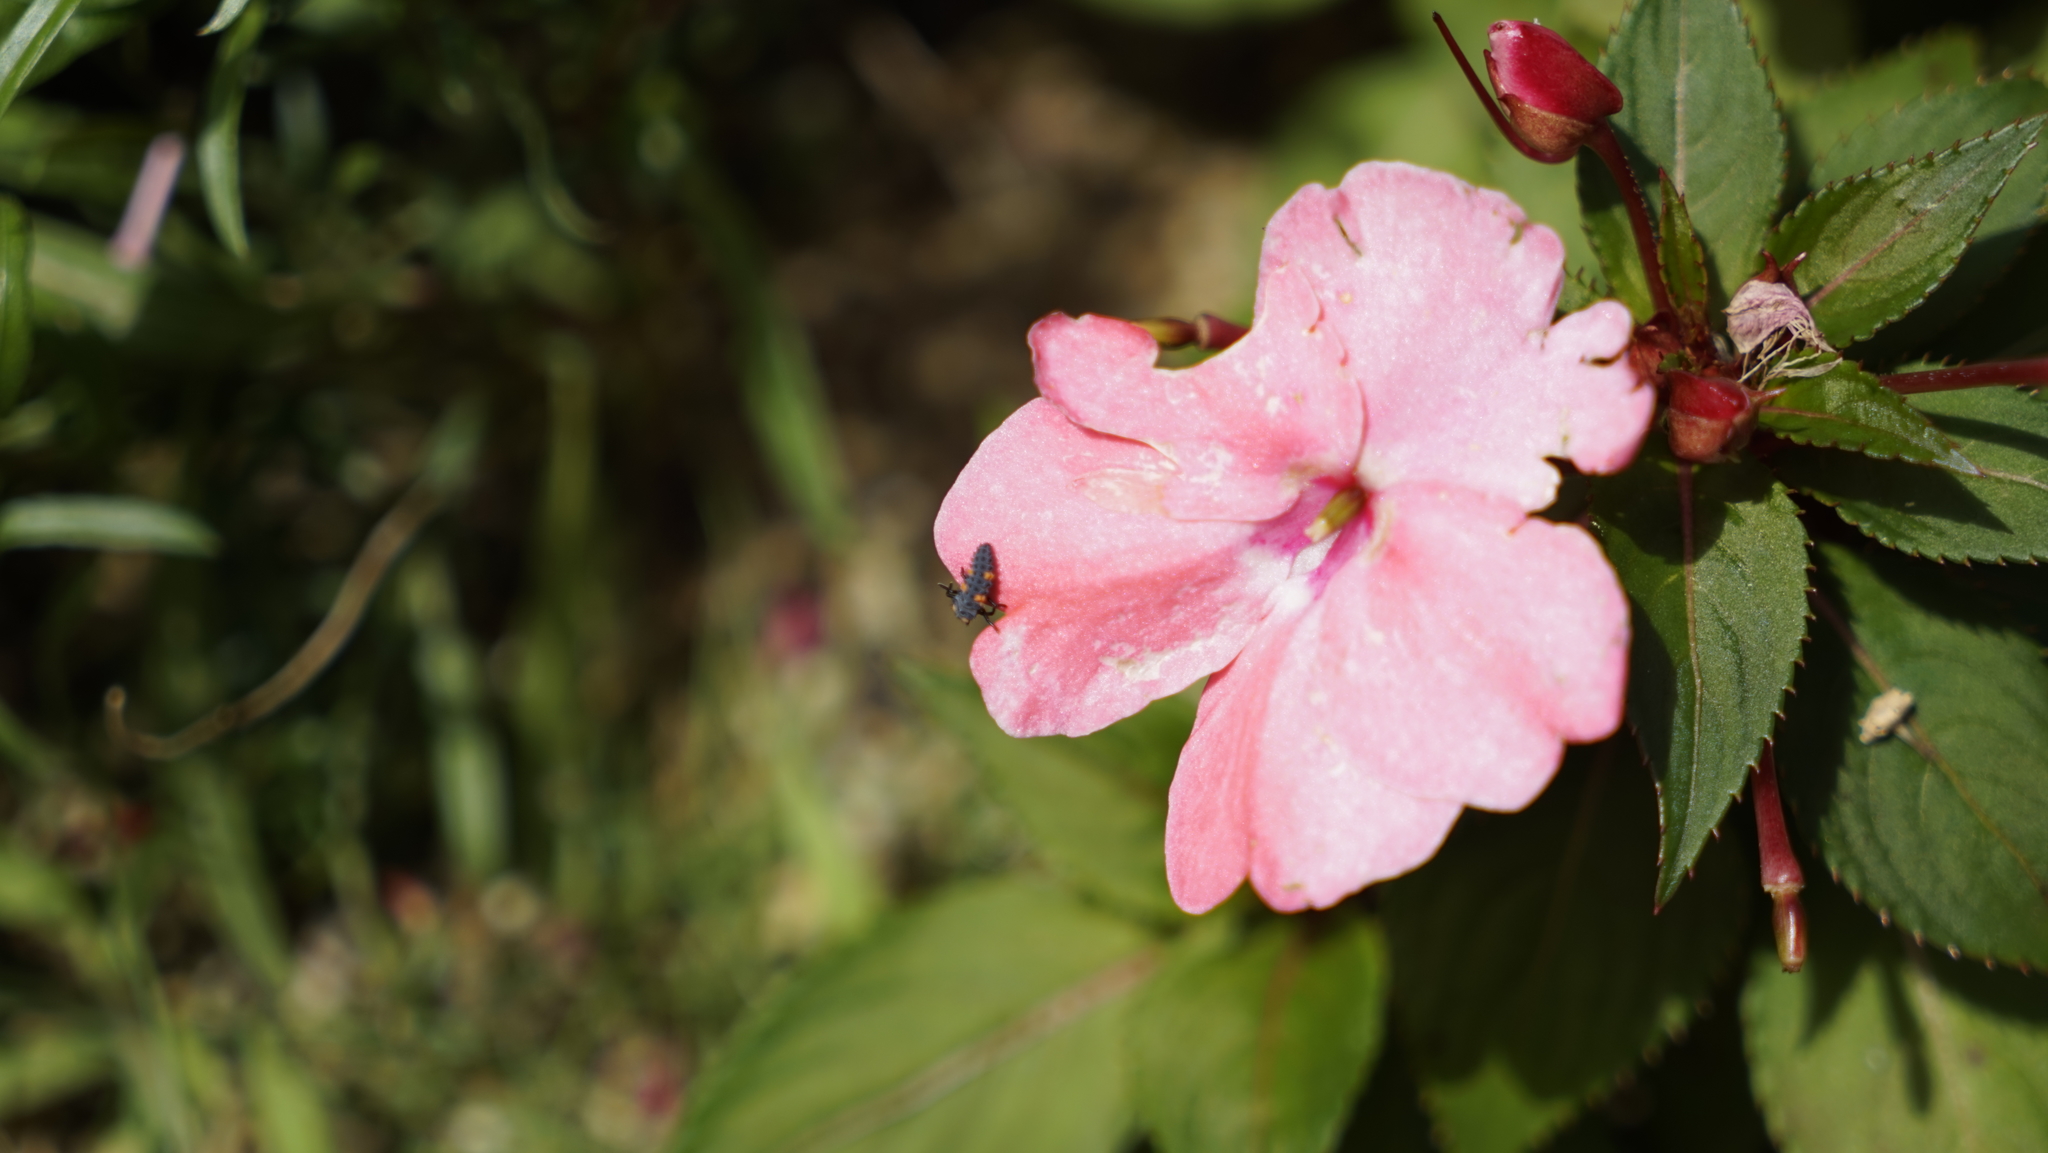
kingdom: Animalia
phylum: Arthropoda
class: Insecta
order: Coleoptera
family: Coccinellidae
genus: Coccinella
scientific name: Coccinella septempunctata
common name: Sevenspotted lady beetle
